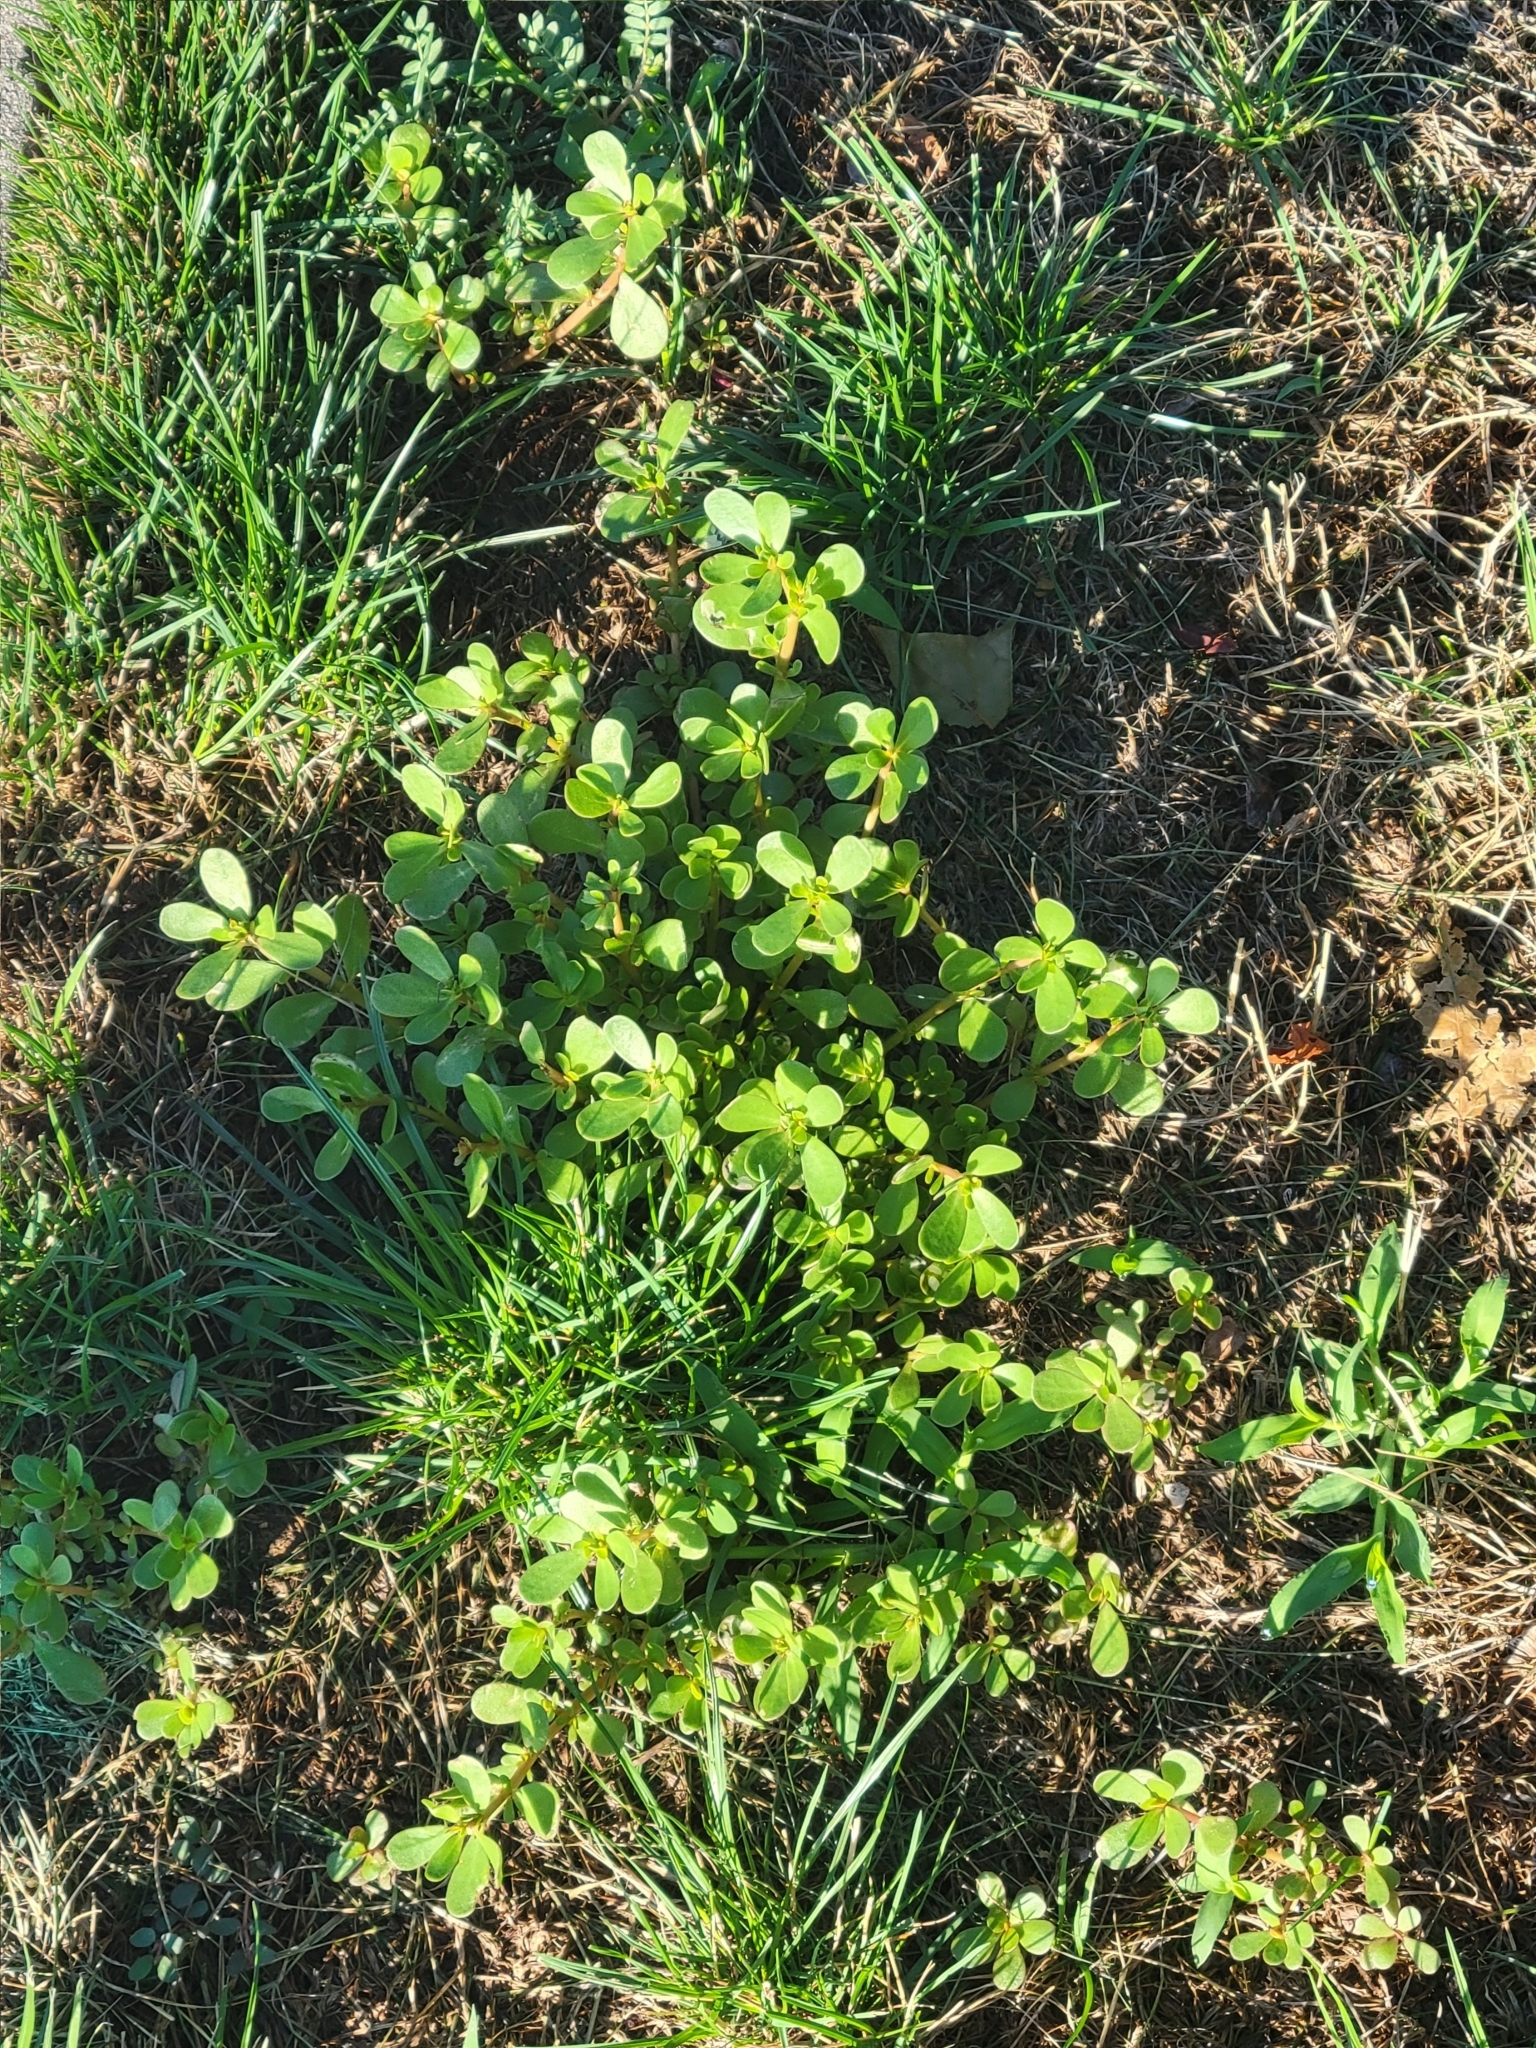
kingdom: Plantae
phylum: Tracheophyta
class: Magnoliopsida
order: Caryophyllales
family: Portulacaceae
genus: Portulaca
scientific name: Portulaca oleracea
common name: Common purslane
